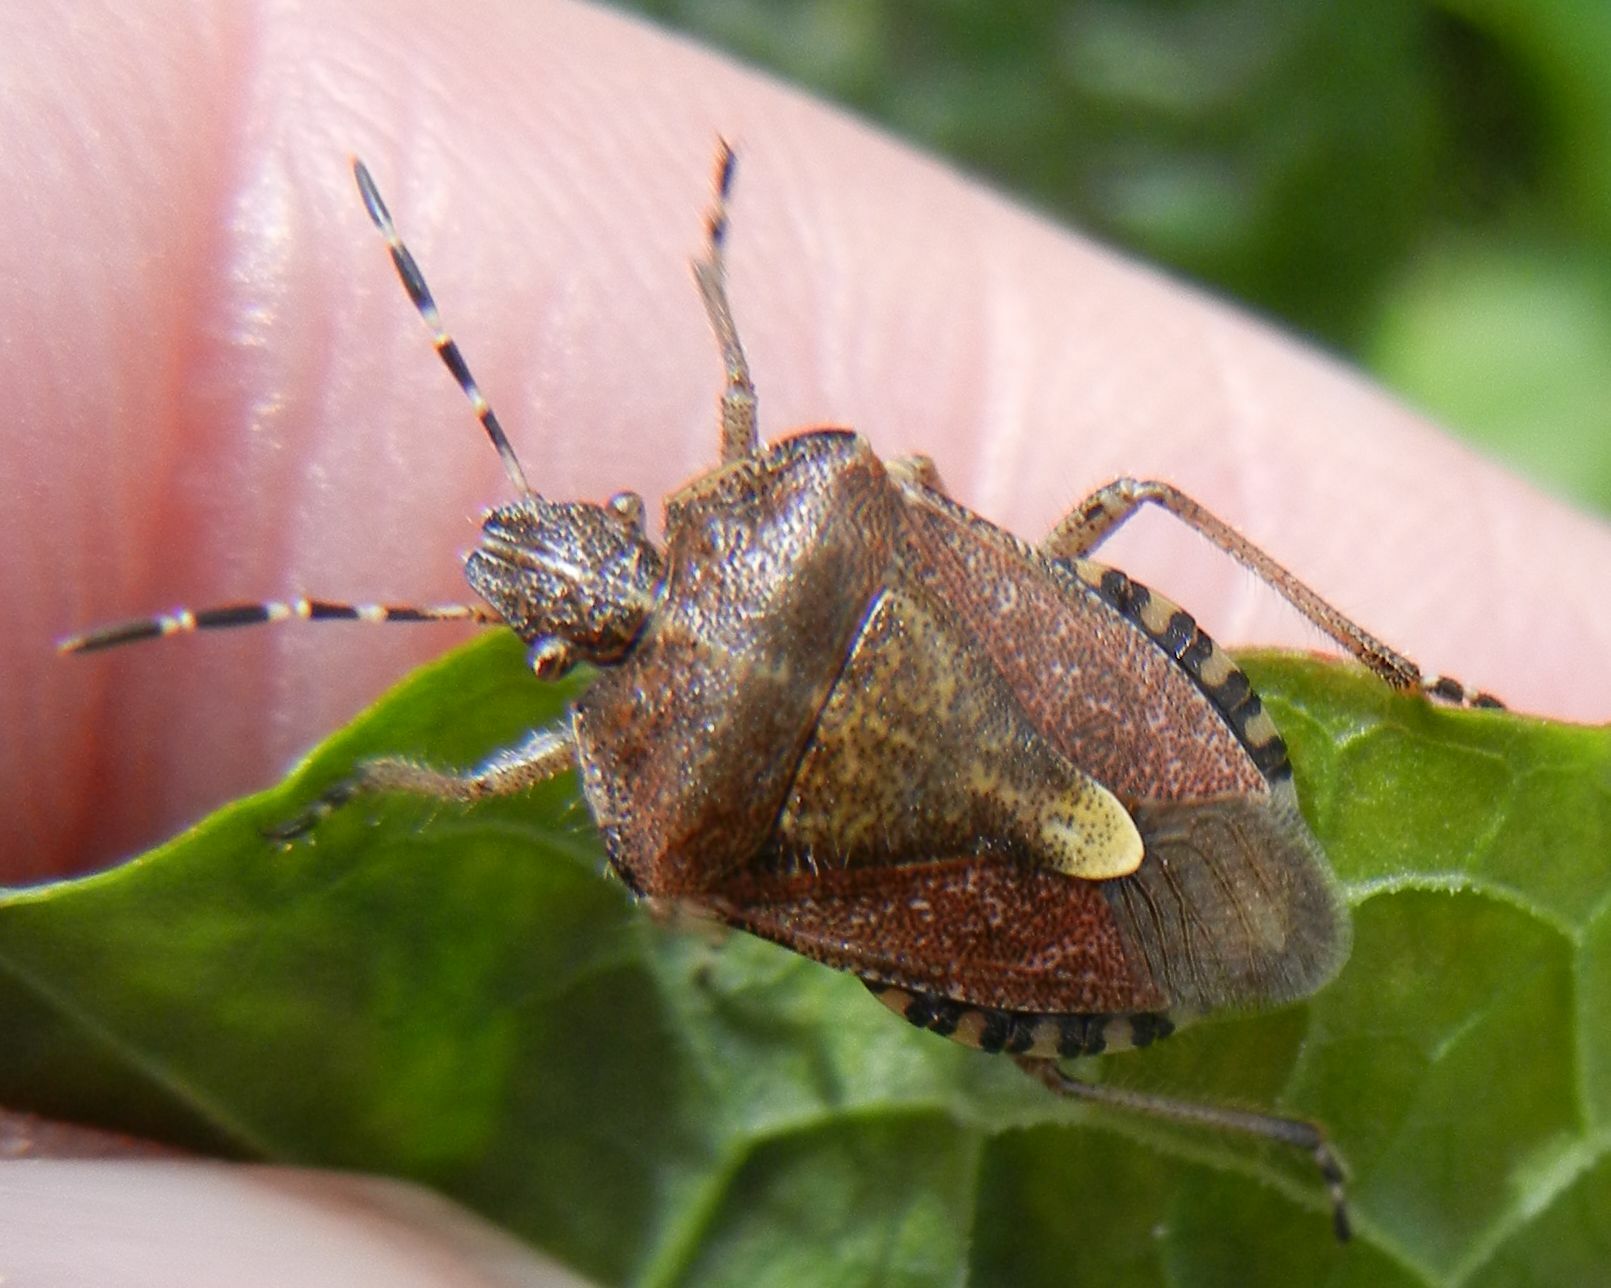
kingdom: Animalia
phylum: Arthropoda
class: Insecta
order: Hemiptera
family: Pentatomidae
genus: Dolycoris
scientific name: Dolycoris baccarum
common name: Sloe bug
